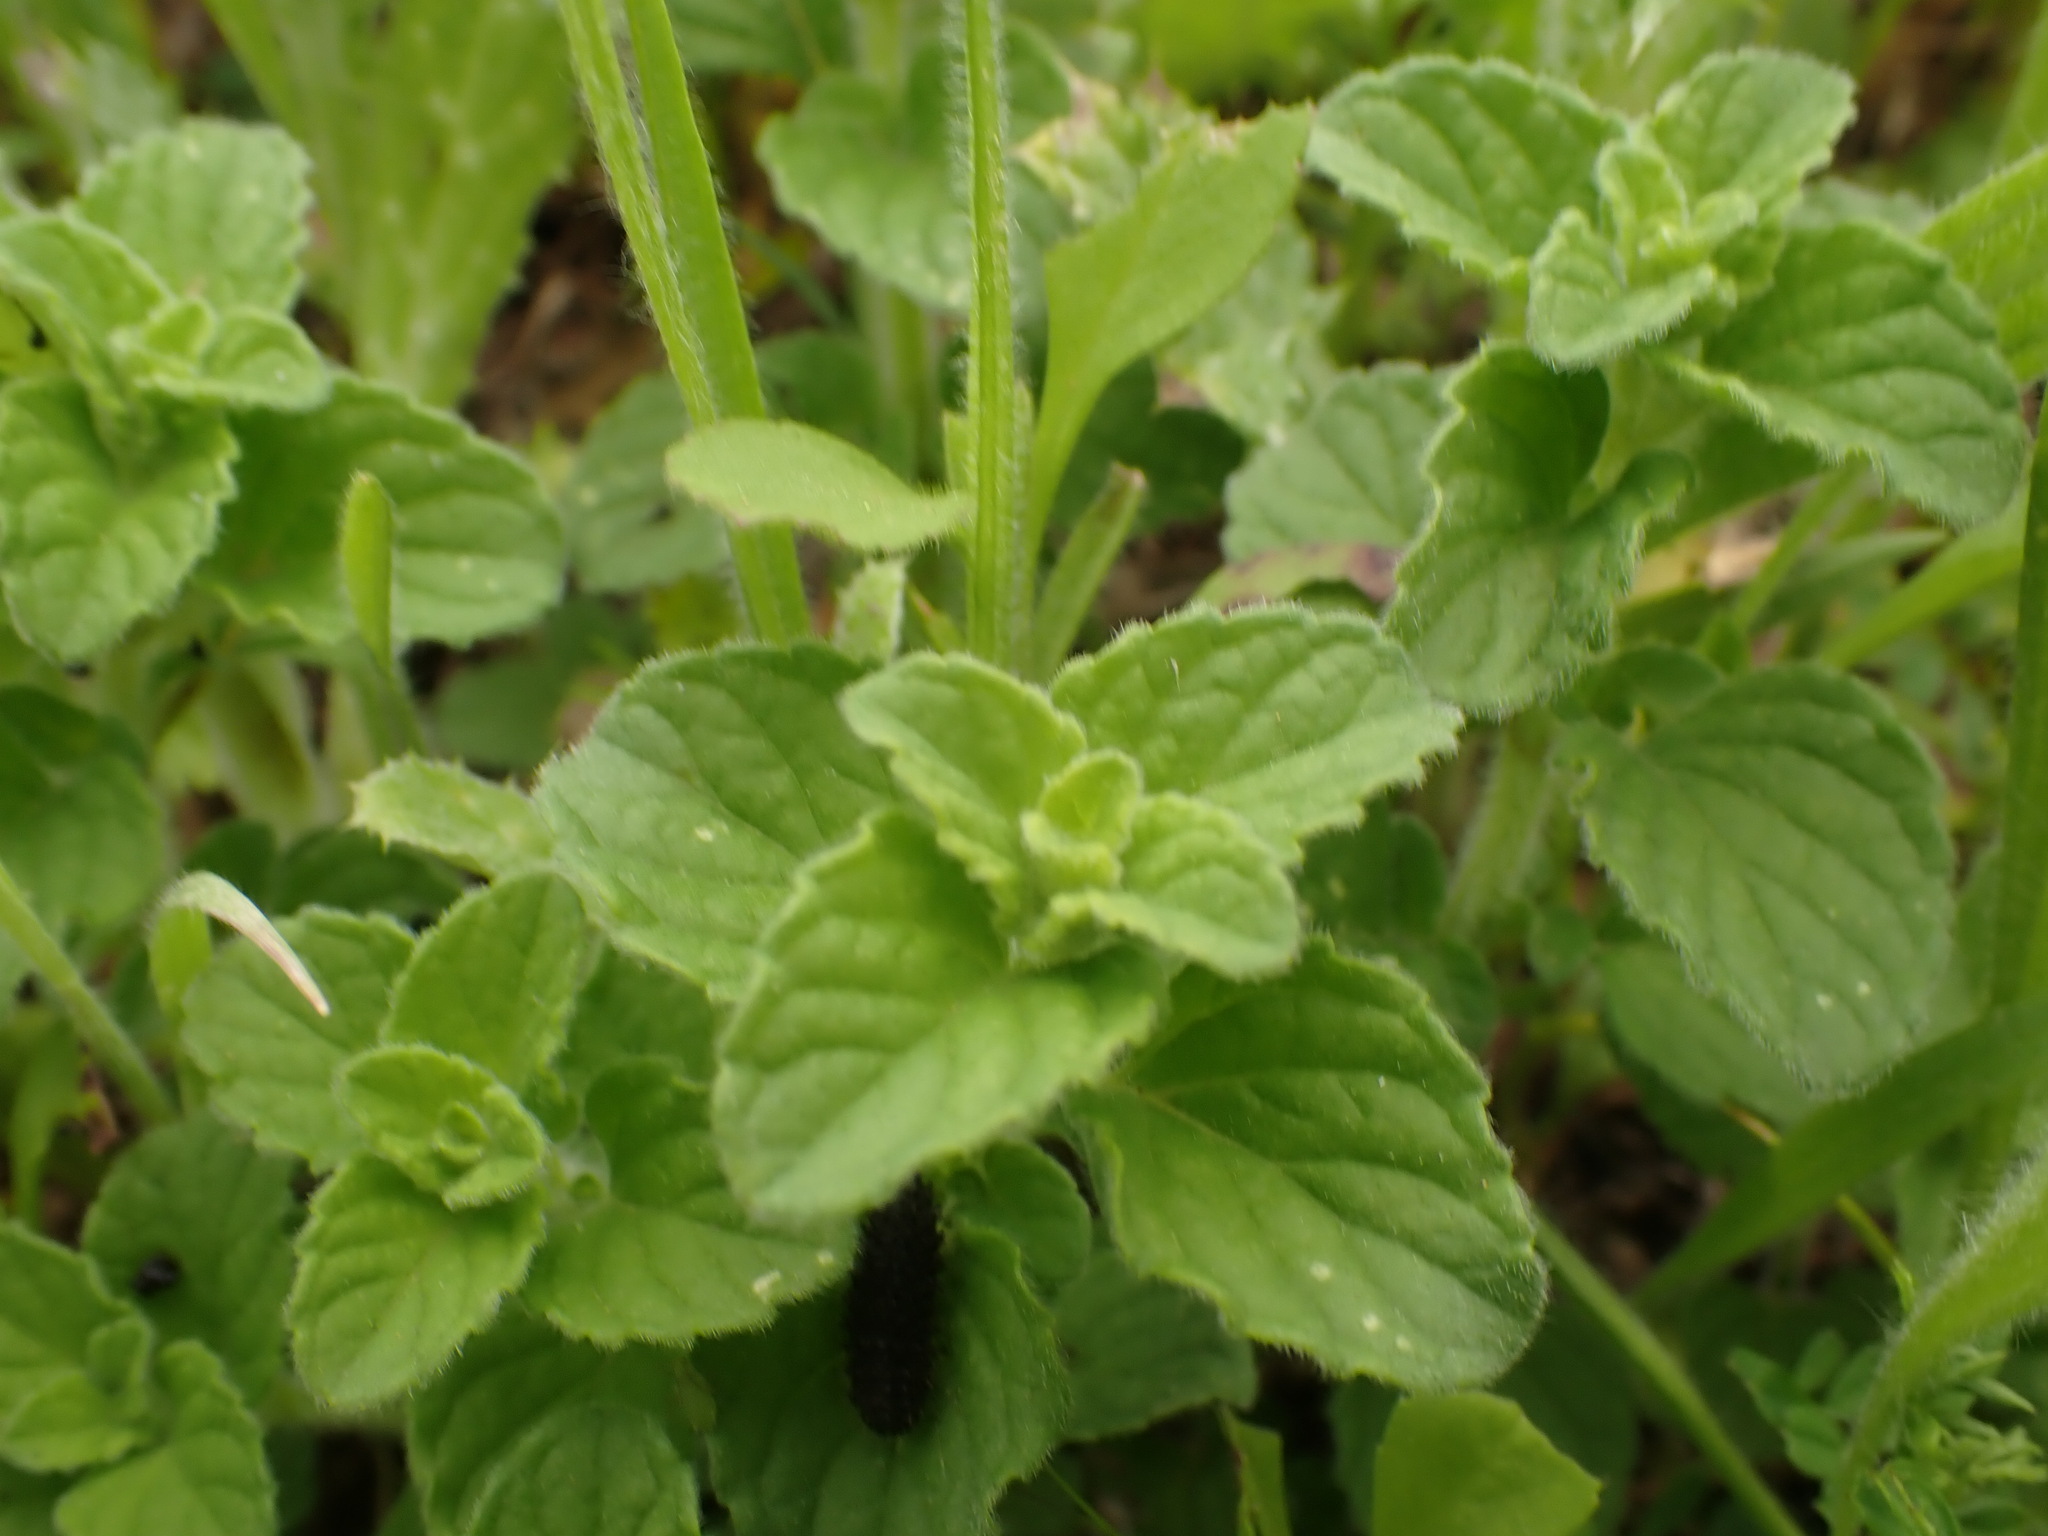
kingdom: Plantae
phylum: Tracheophyta
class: Magnoliopsida
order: Lamiales
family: Lamiaceae
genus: Clinopodium
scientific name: Clinopodium nepeta
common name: Lesser calamint
